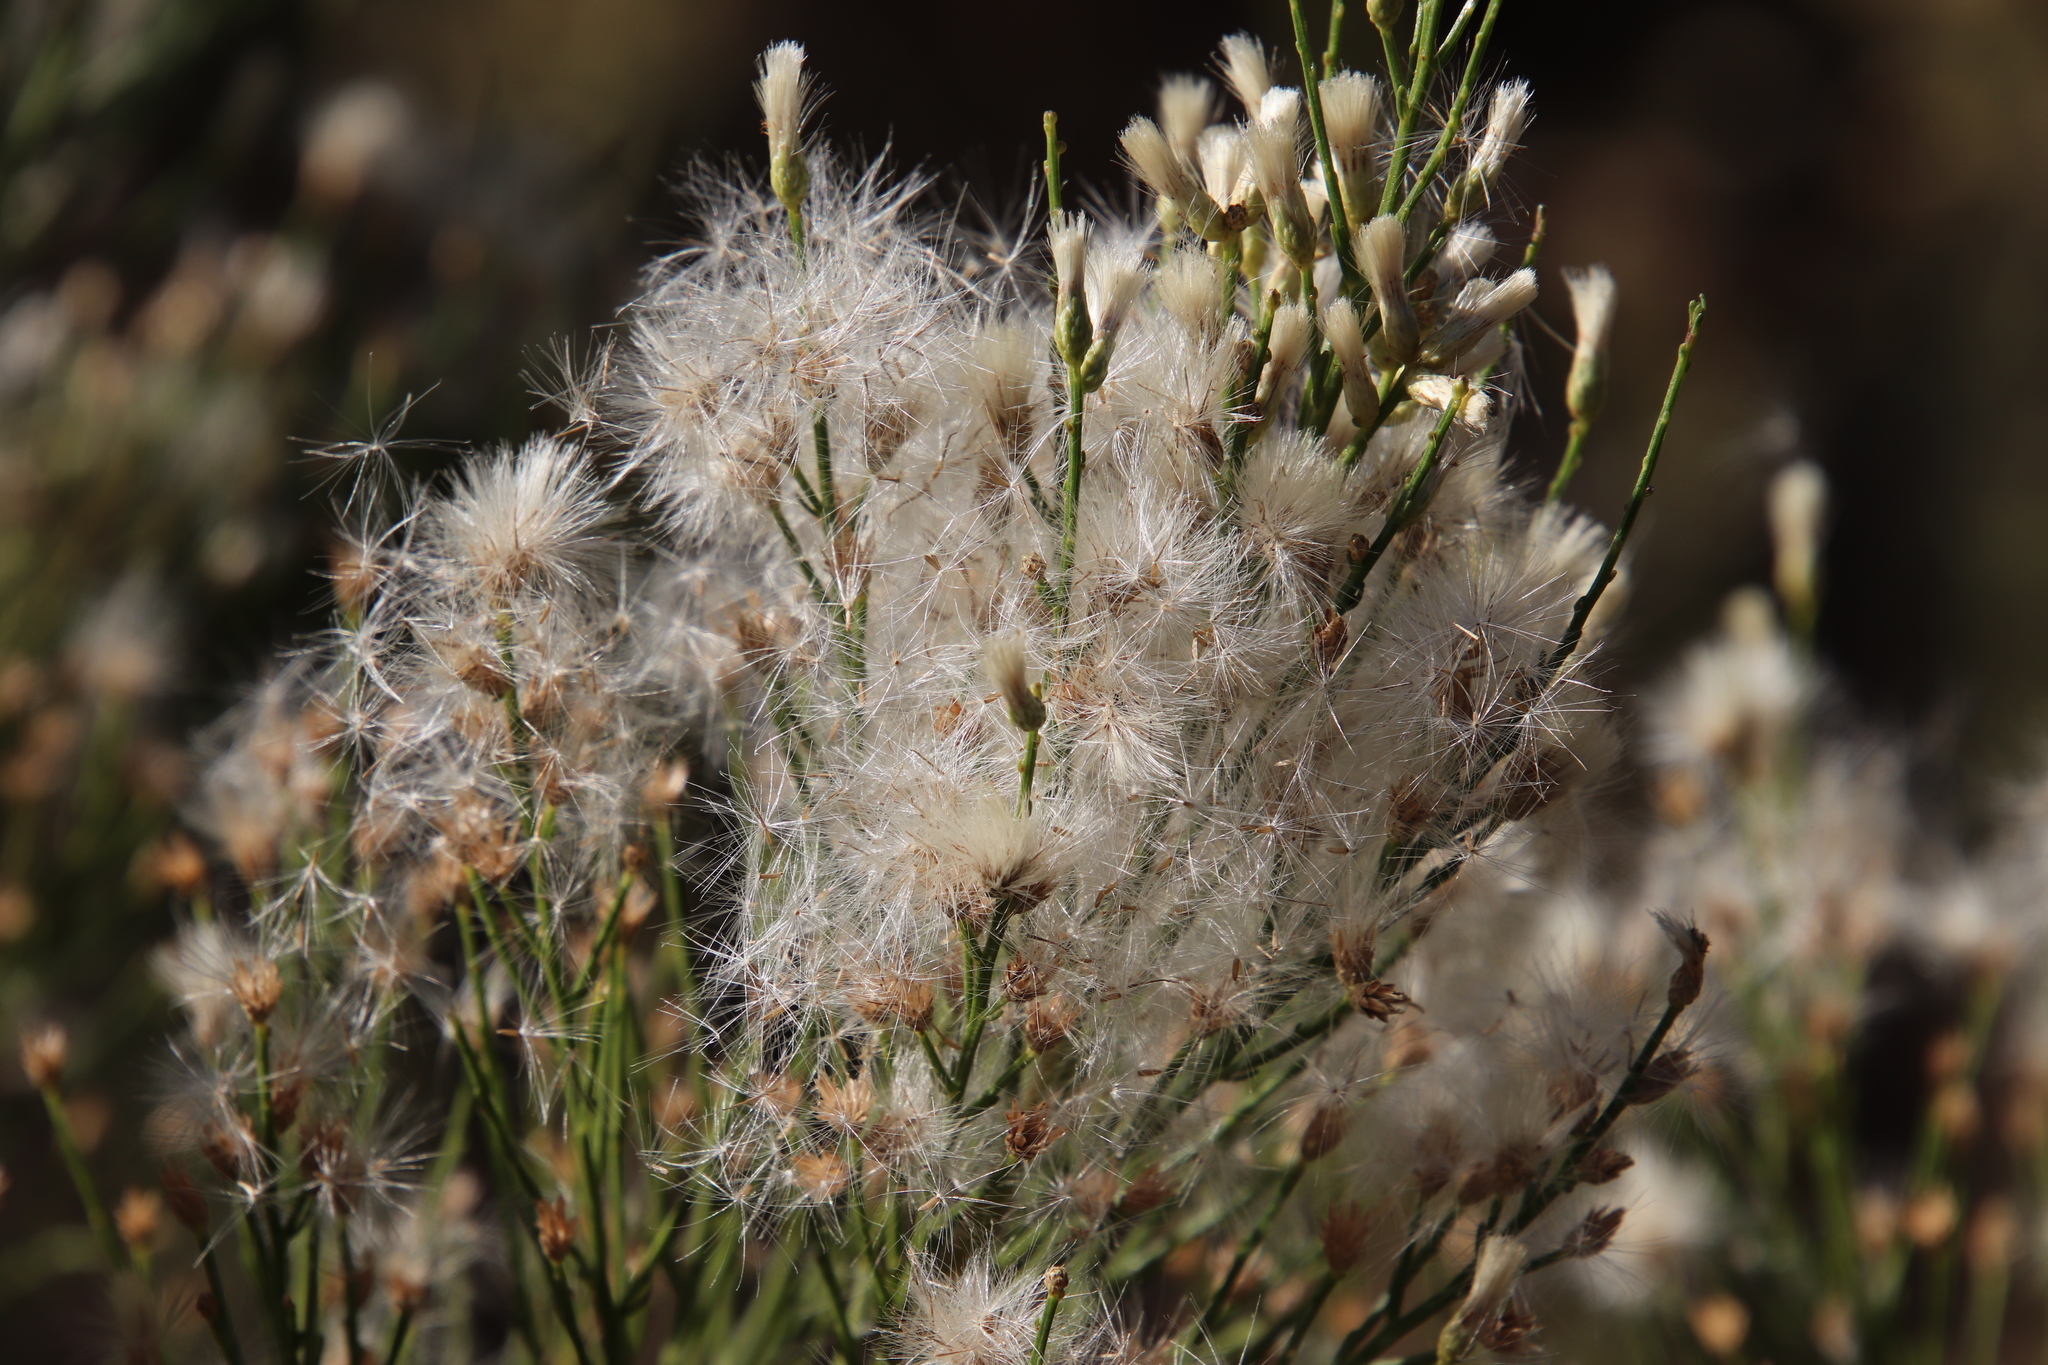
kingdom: Plantae
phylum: Tracheophyta
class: Magnoliopsida
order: Asterales
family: Asteraceae
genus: Baccharis
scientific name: Baccharis sarothroides
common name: Desert-broom
